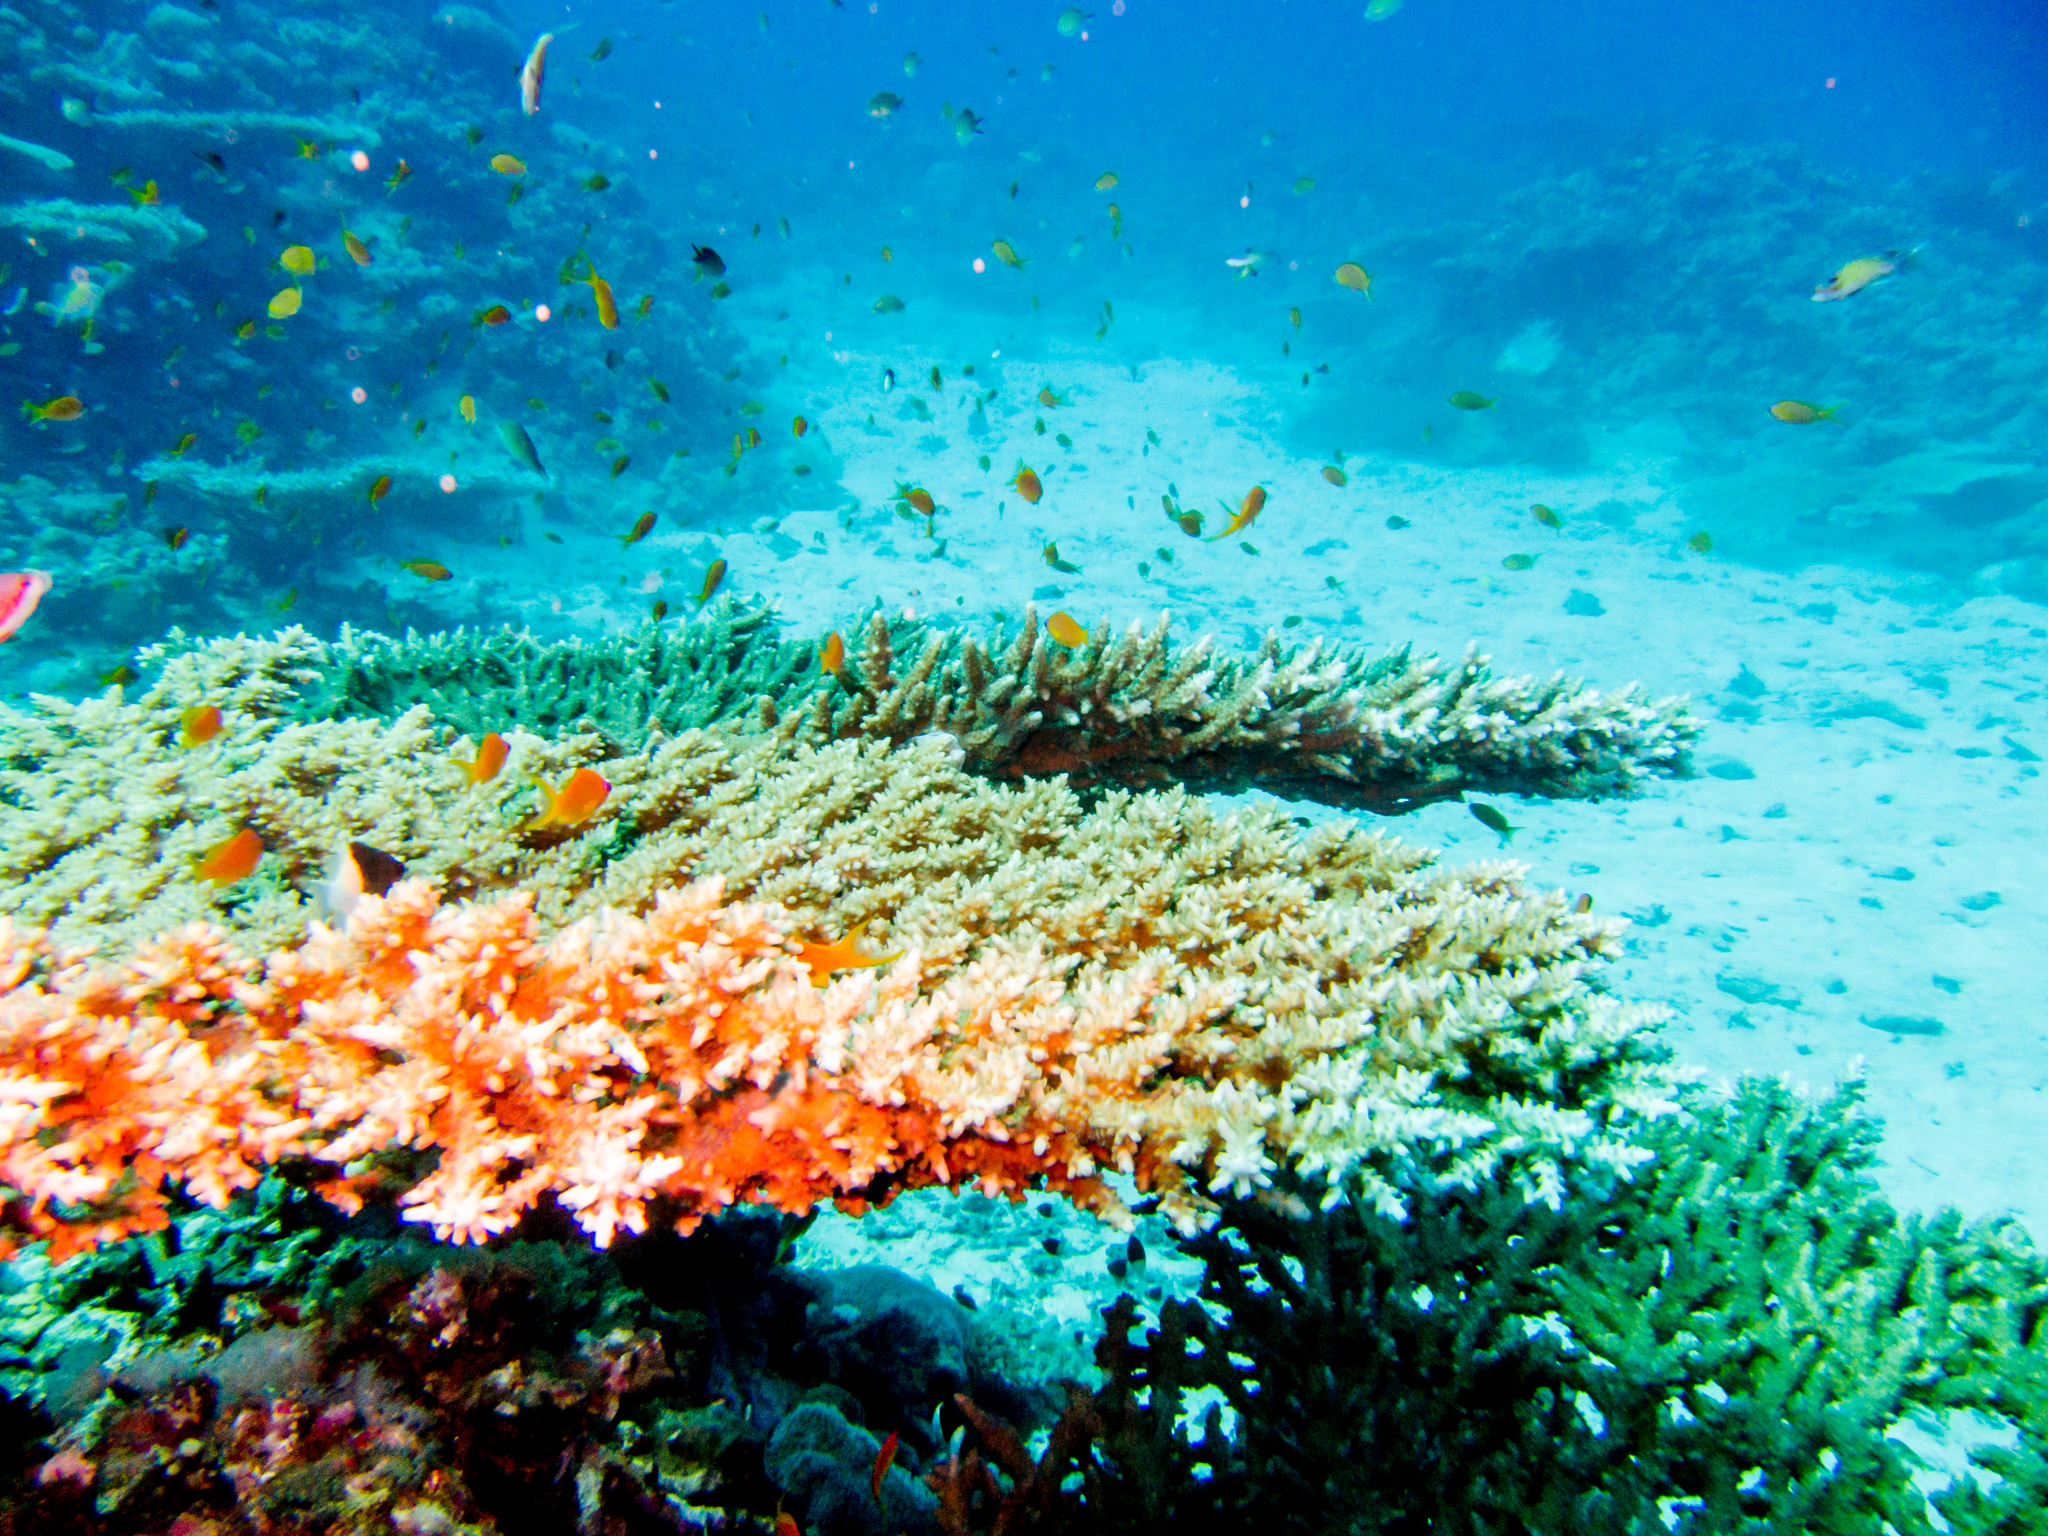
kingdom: Animalia
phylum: Chordata
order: Perciformes
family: Serranidae
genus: Pseudanthias
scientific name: Pseudanthias squamipinnis
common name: Scalefin anthias
